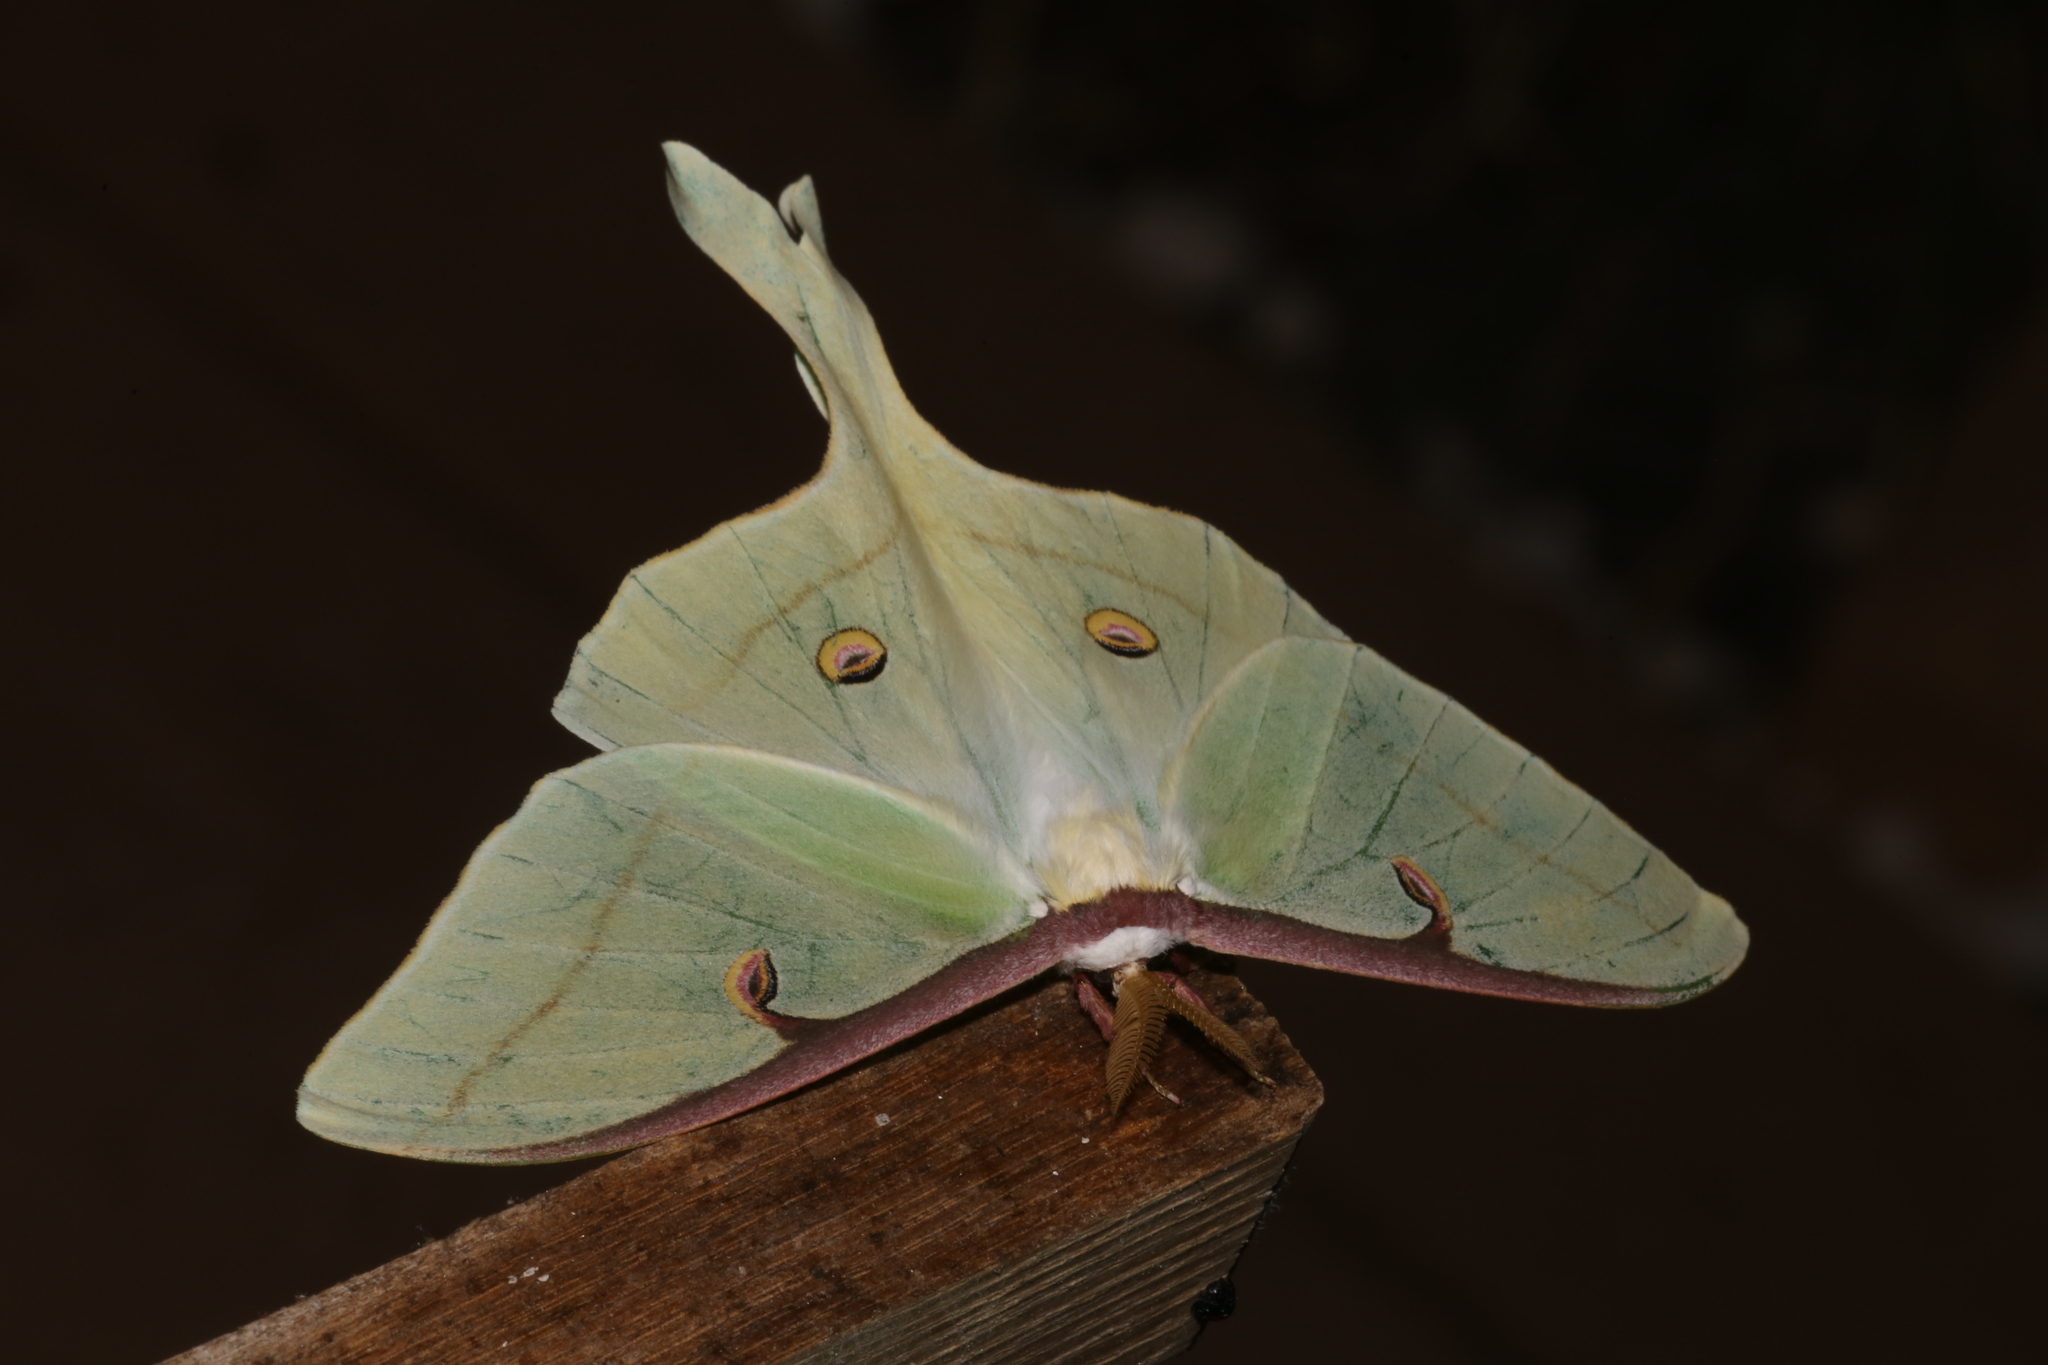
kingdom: Animalia
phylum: Arthropoda
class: Insecta
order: Lepidoptera
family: Saturniidae
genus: Actias
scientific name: Actias luna
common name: Luna moth
